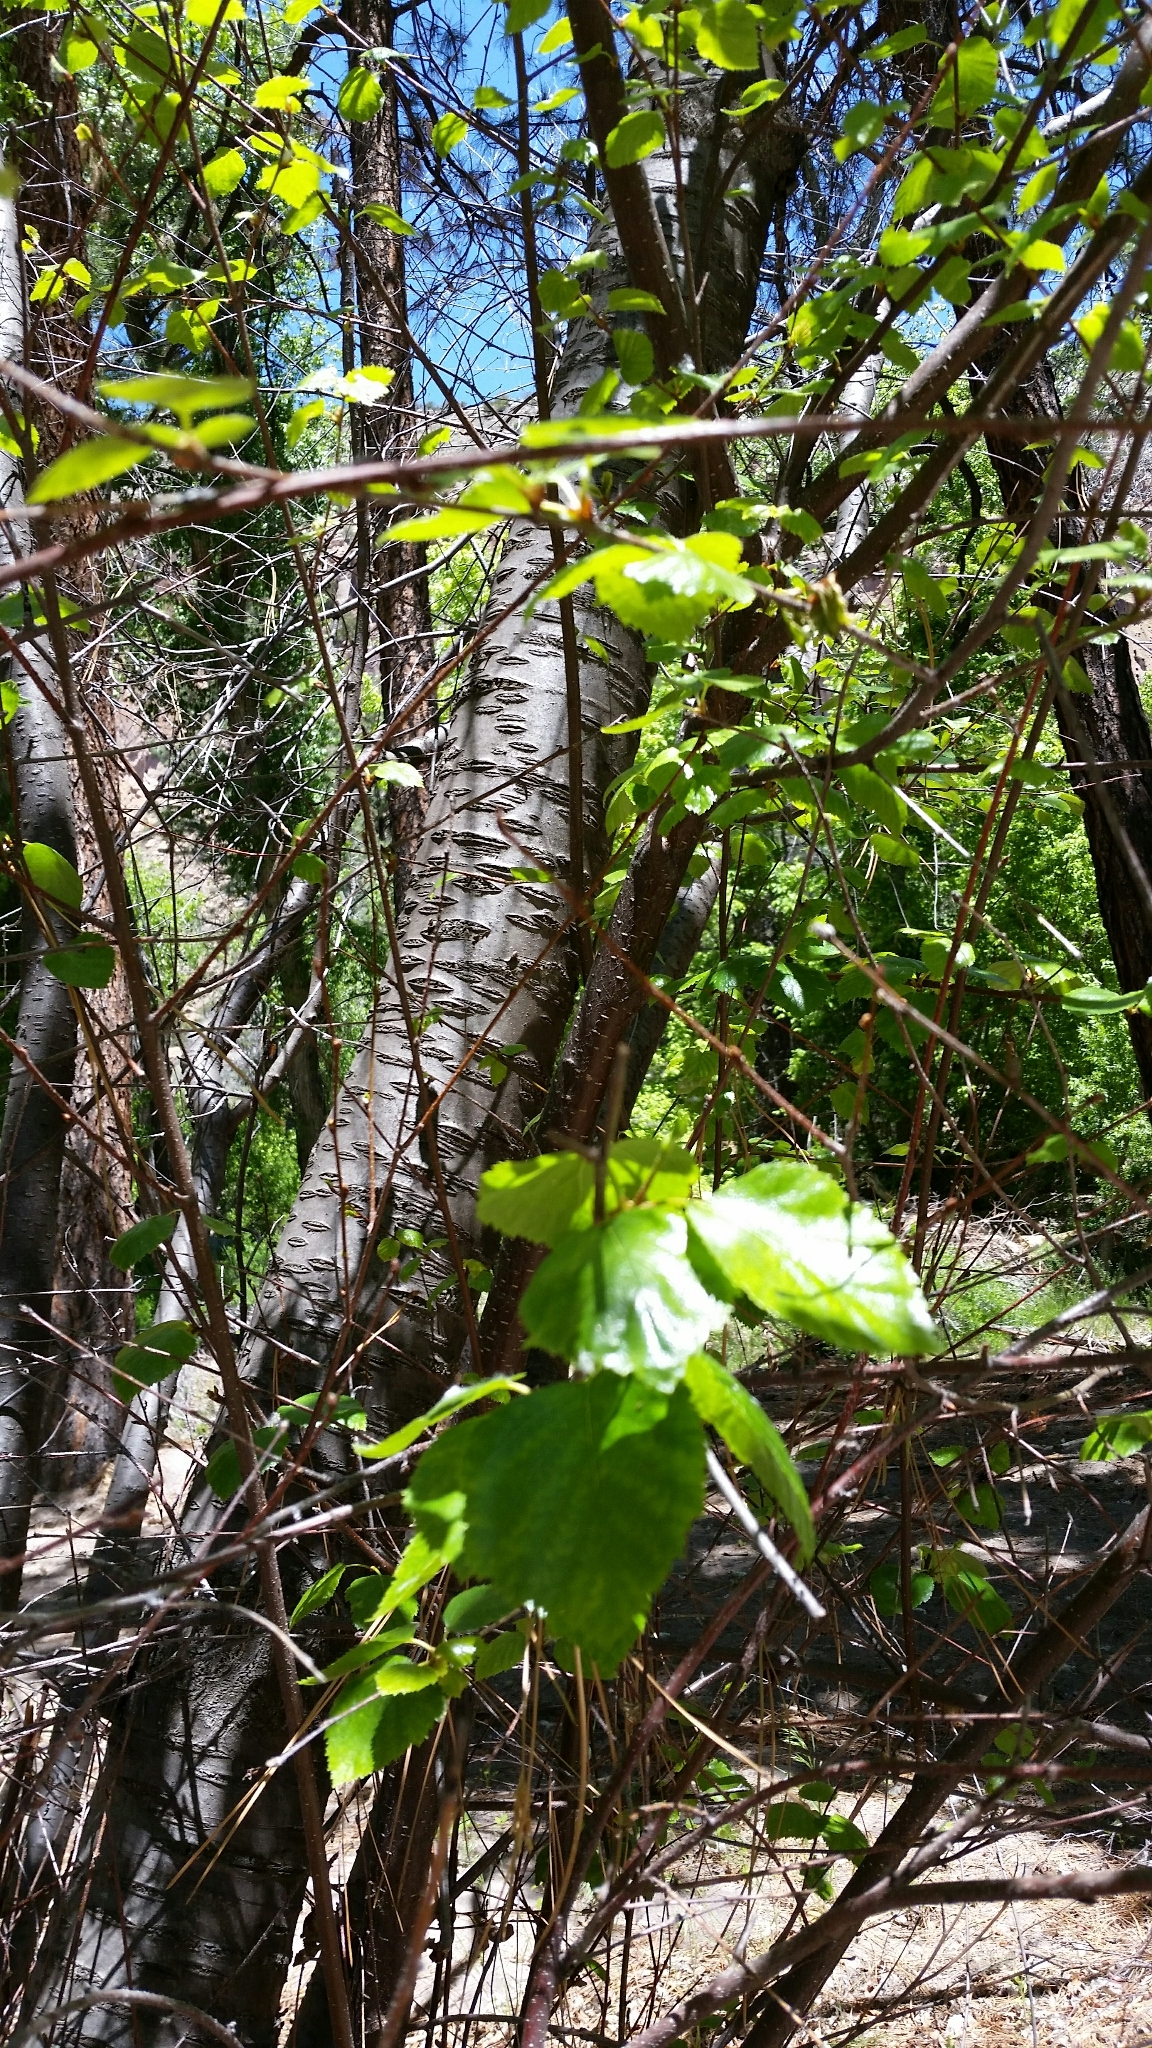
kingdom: Plantae
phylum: Tracheophyta
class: Magnoliopsida
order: Fagales
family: Betulaceae
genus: Betula
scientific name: Betula occidentalis
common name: River birch
